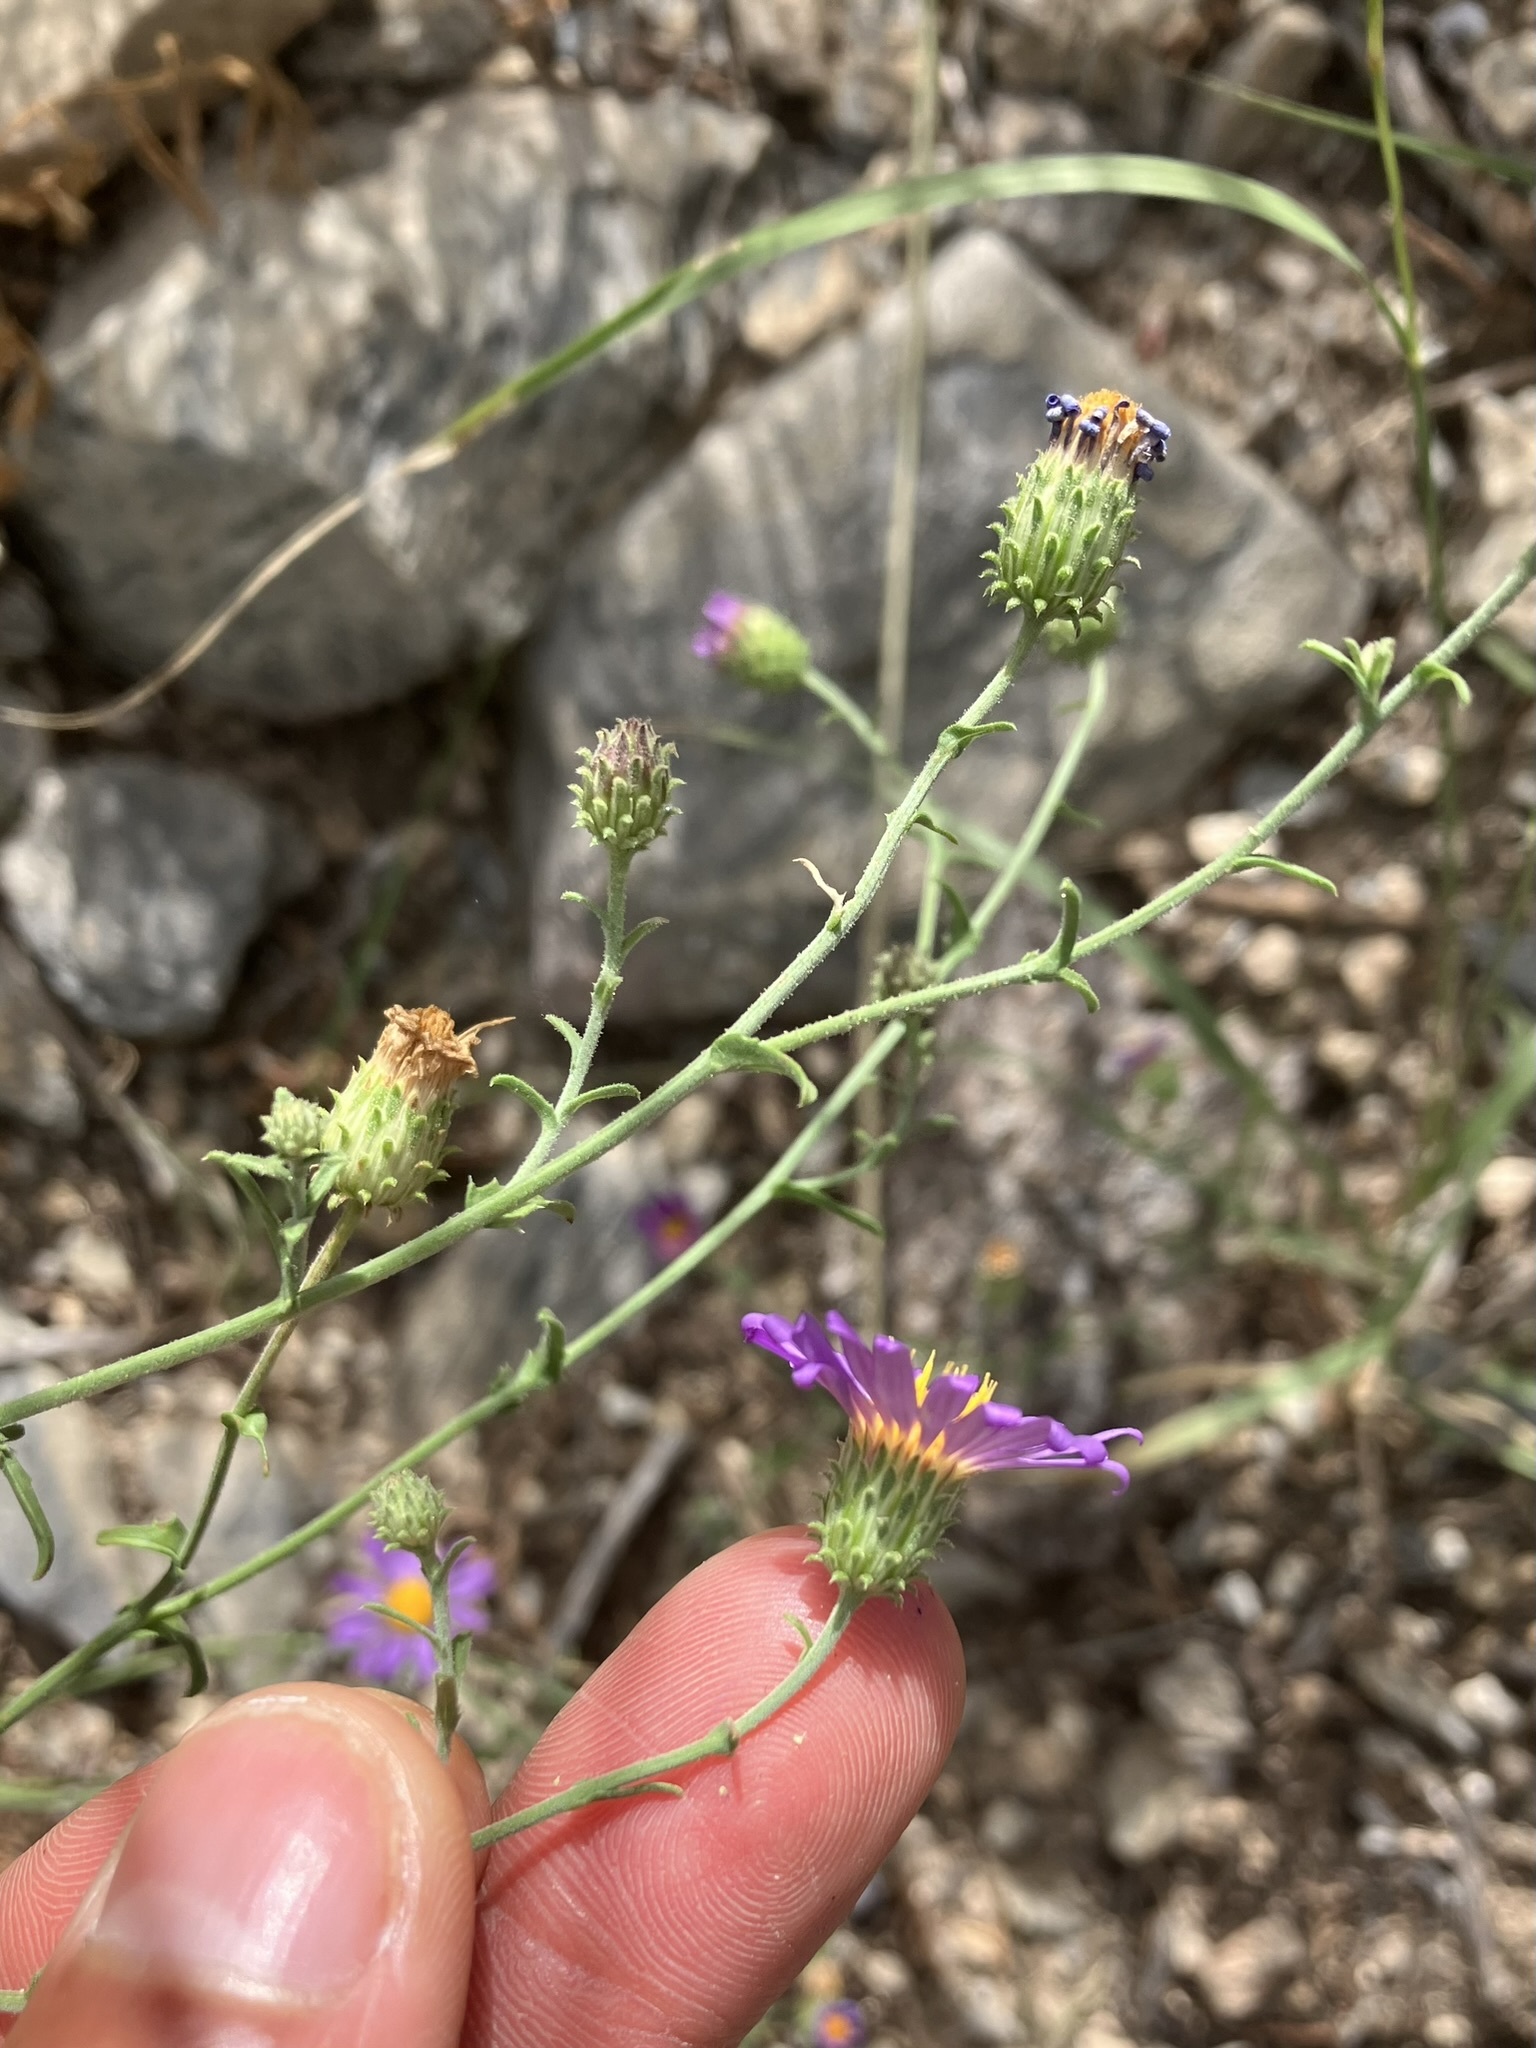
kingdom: Plantae
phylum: Tracheophyta
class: Magnoliopsida
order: Asterales
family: Asteraceae
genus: Dieteria
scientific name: Dieteria canescens
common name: Hoary-aster
